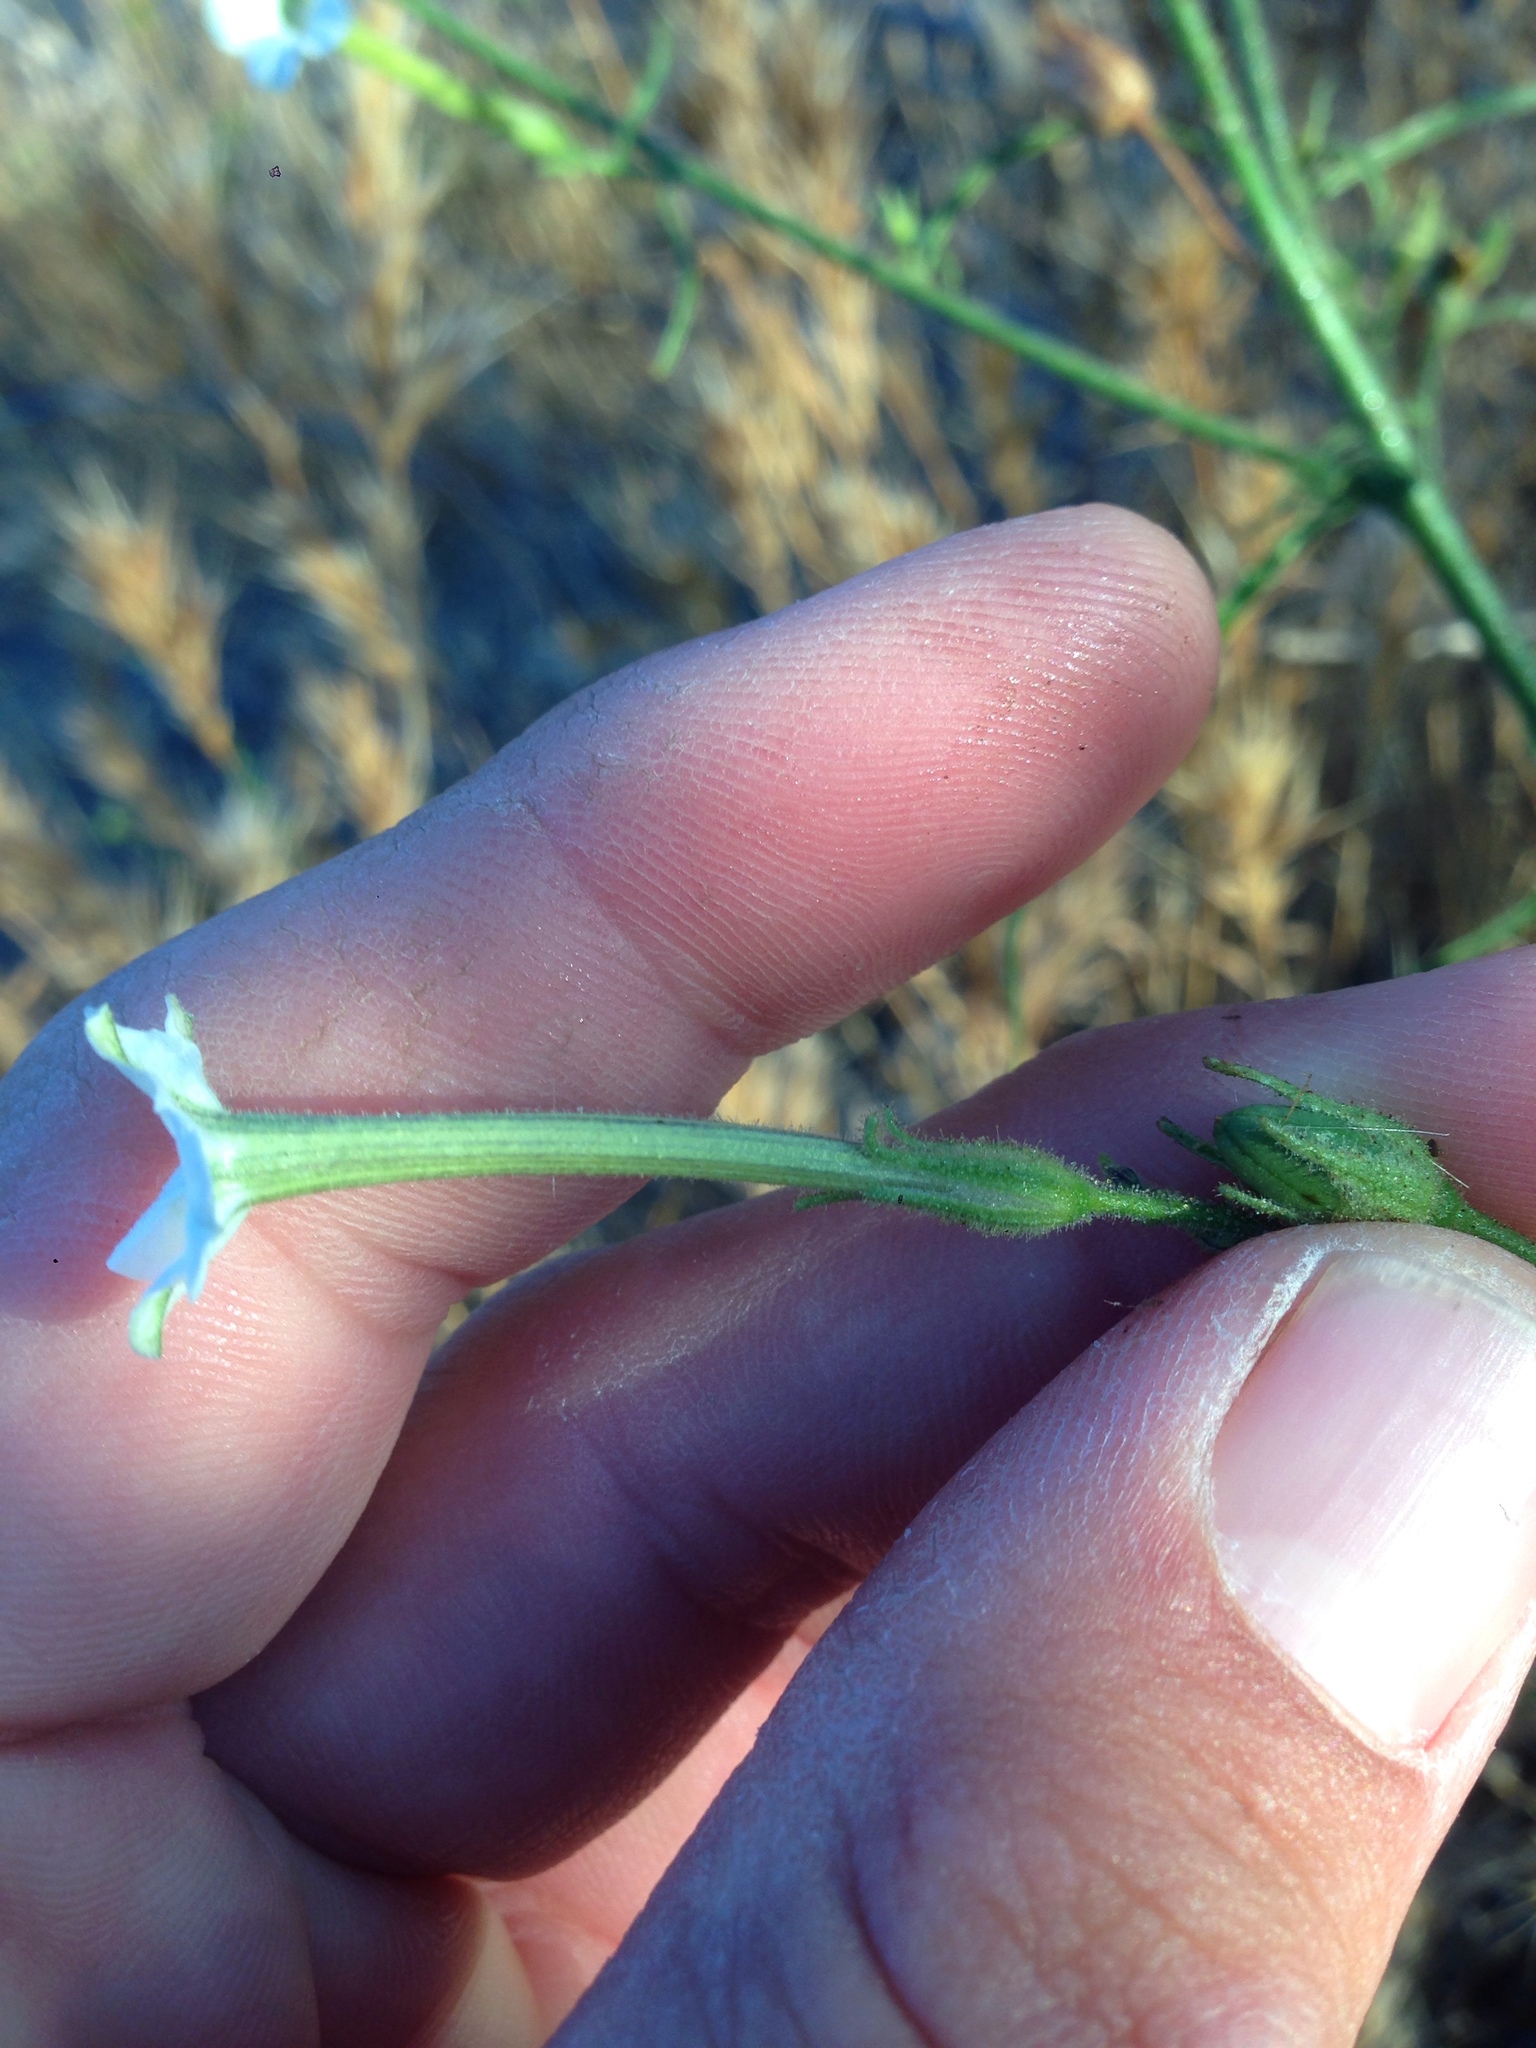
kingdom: Plantae
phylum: Tracheophyta
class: Magnoliopsida
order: Solanales
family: Solanaceae
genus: Nicotiana
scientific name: Nicotiana acuminata
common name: Manyflower tobacco
